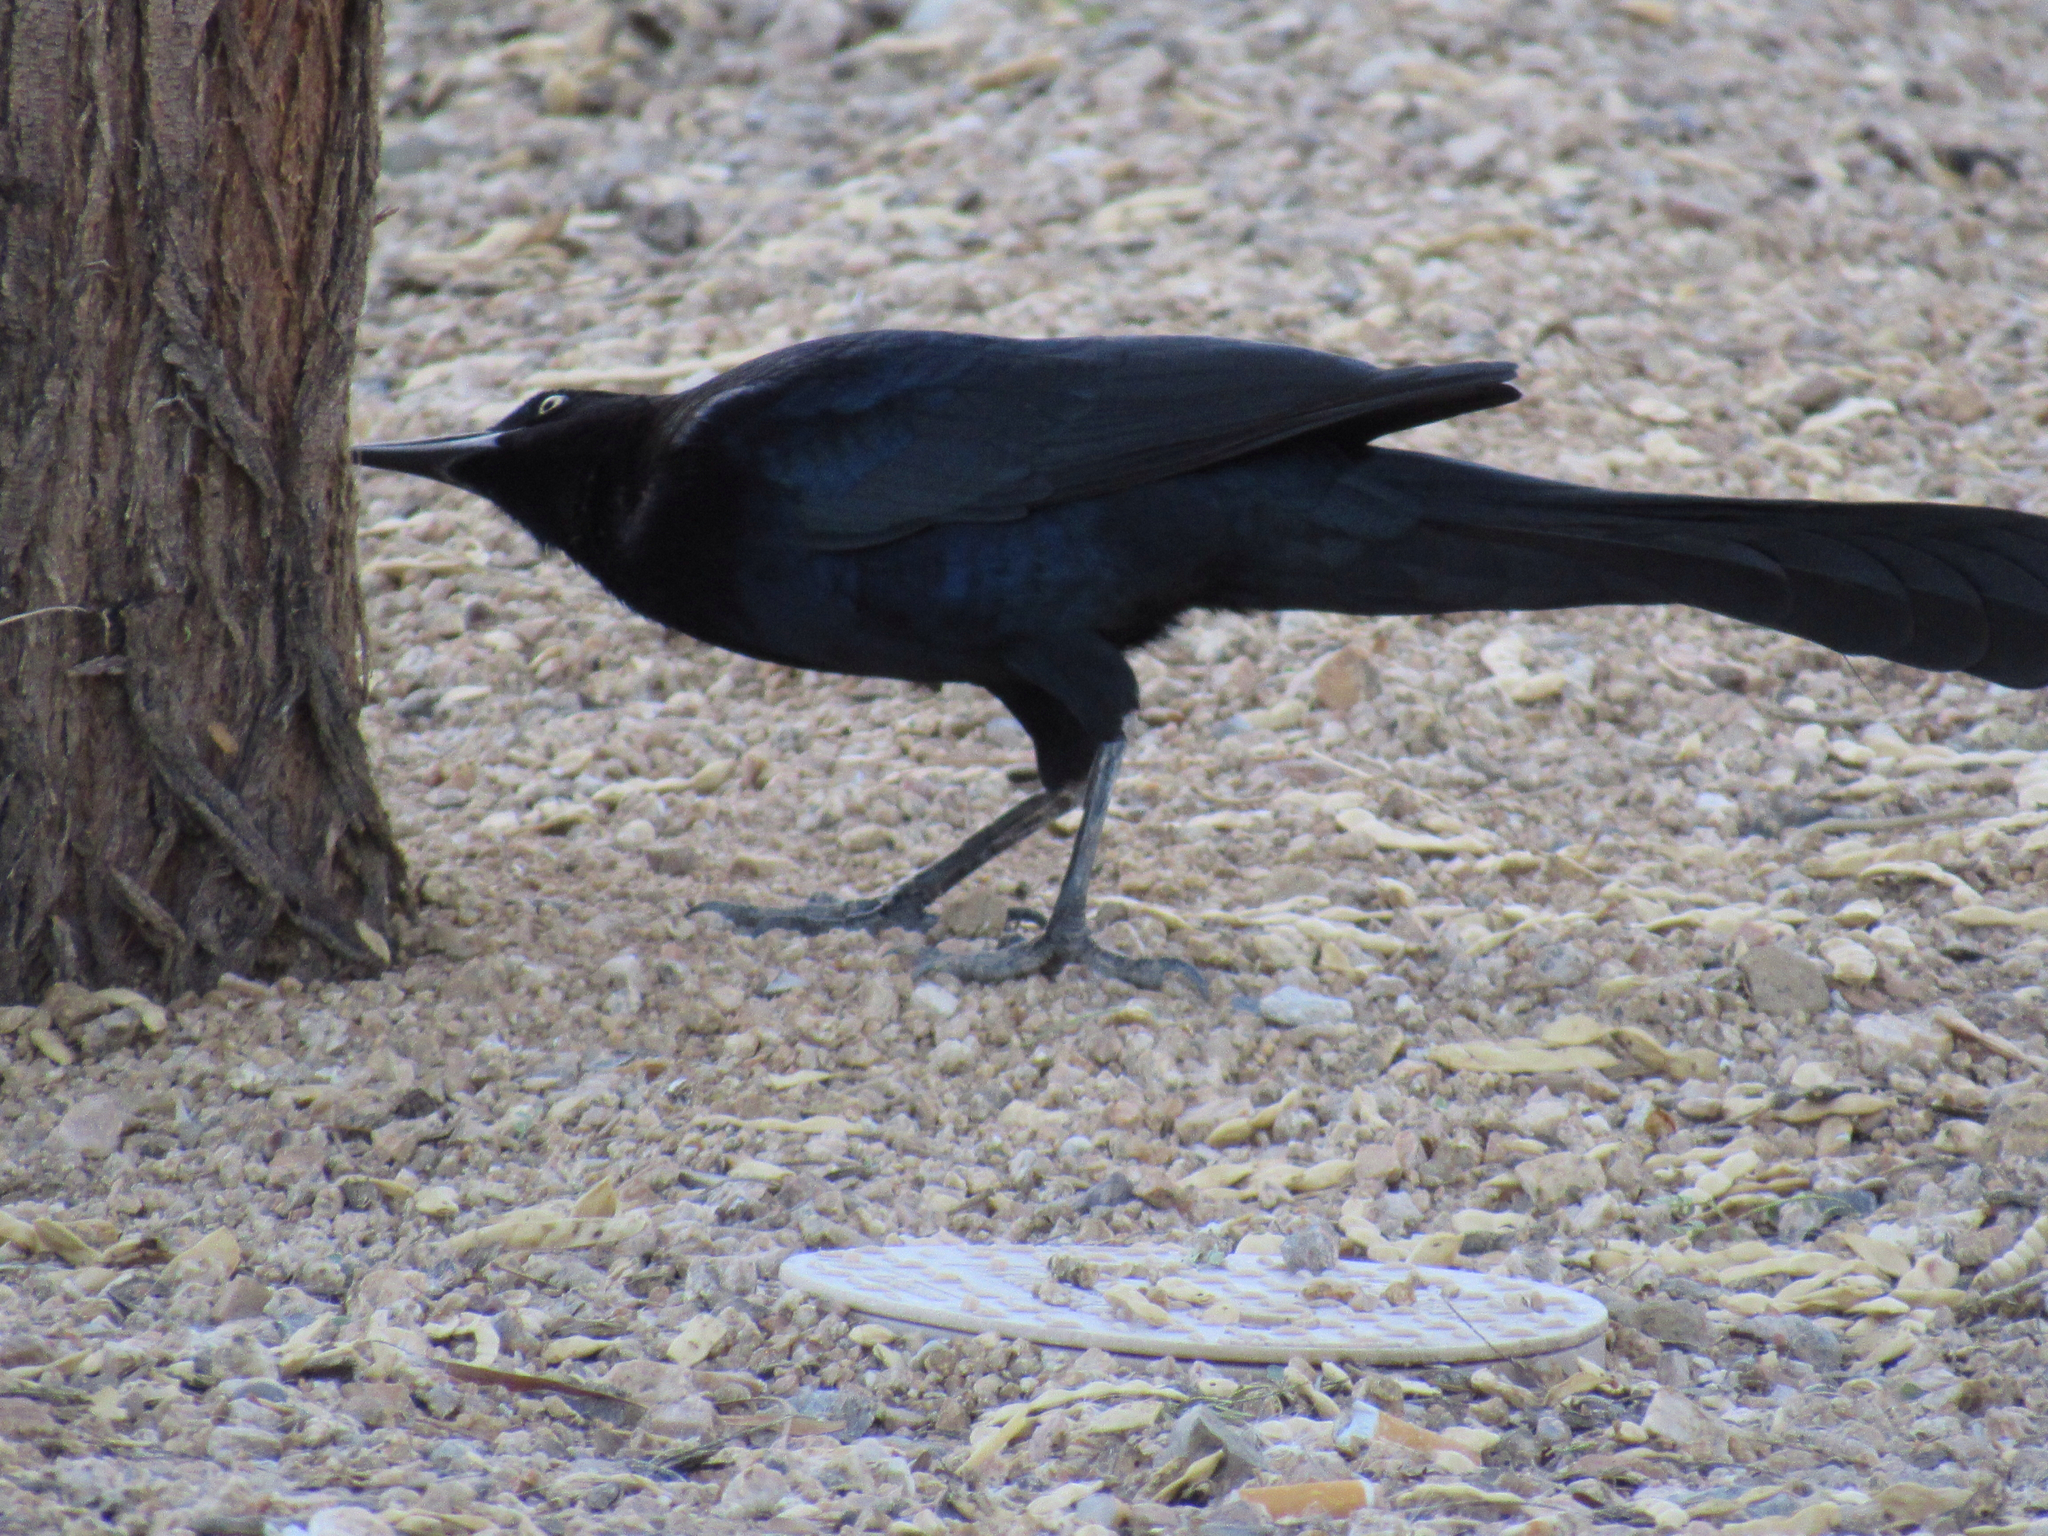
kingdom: Animalia
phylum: Chordata
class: Aves
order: Passeriformes
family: Icteridae
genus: Quiscalus
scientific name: Quiscalus mexicanus
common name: Great-tailed grackle
